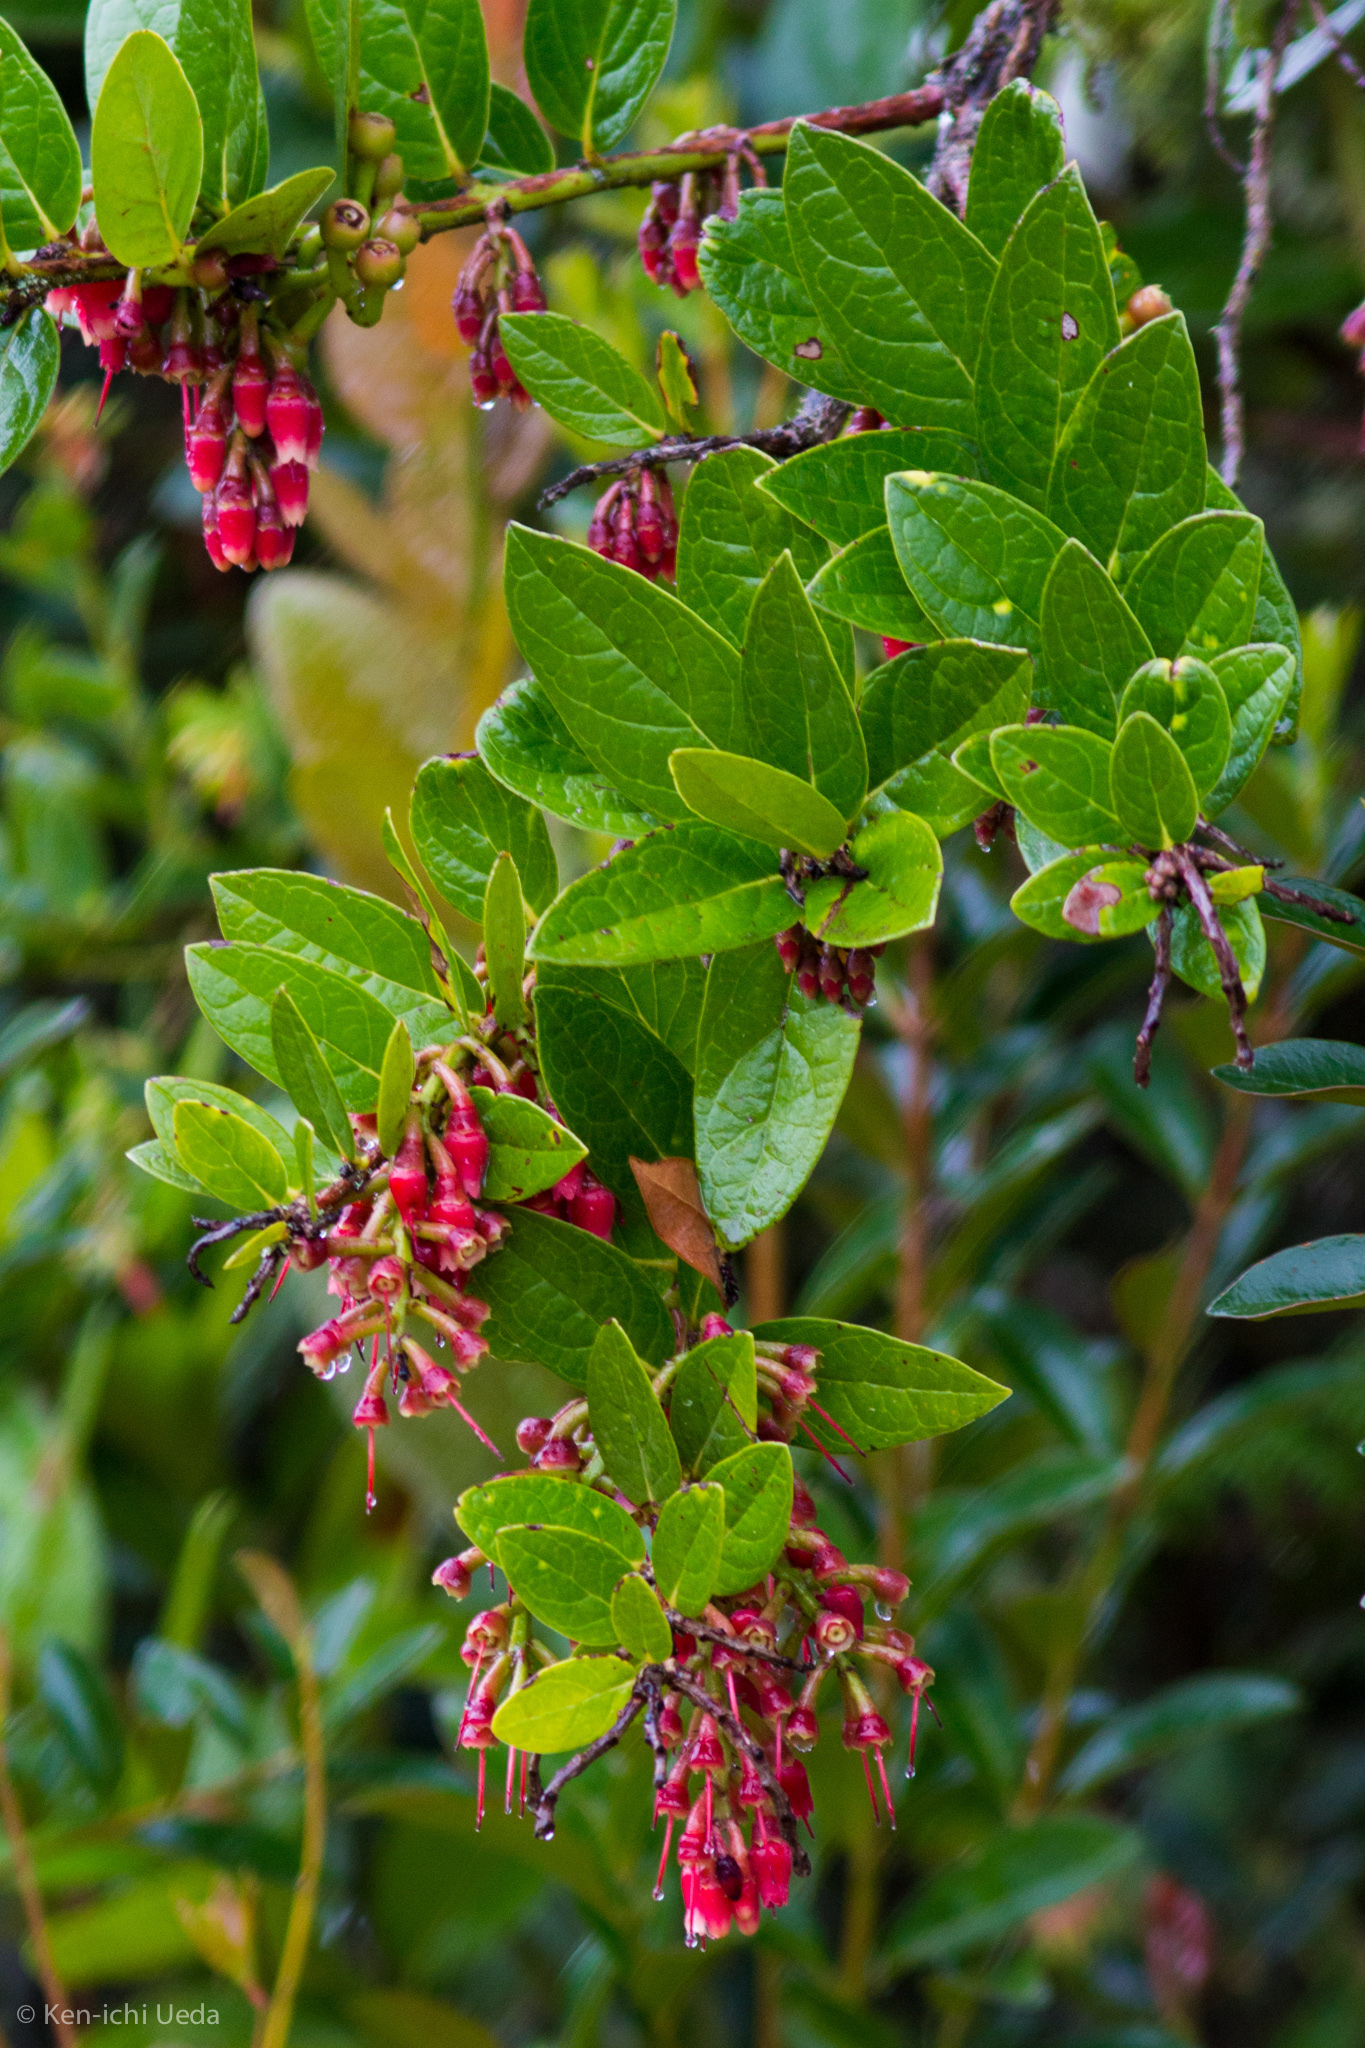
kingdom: Plantae
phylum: Tracheophyta
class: Magnoliopsida
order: Ericales
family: Ericaceae
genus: Macleania
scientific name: Macleania rupestris
